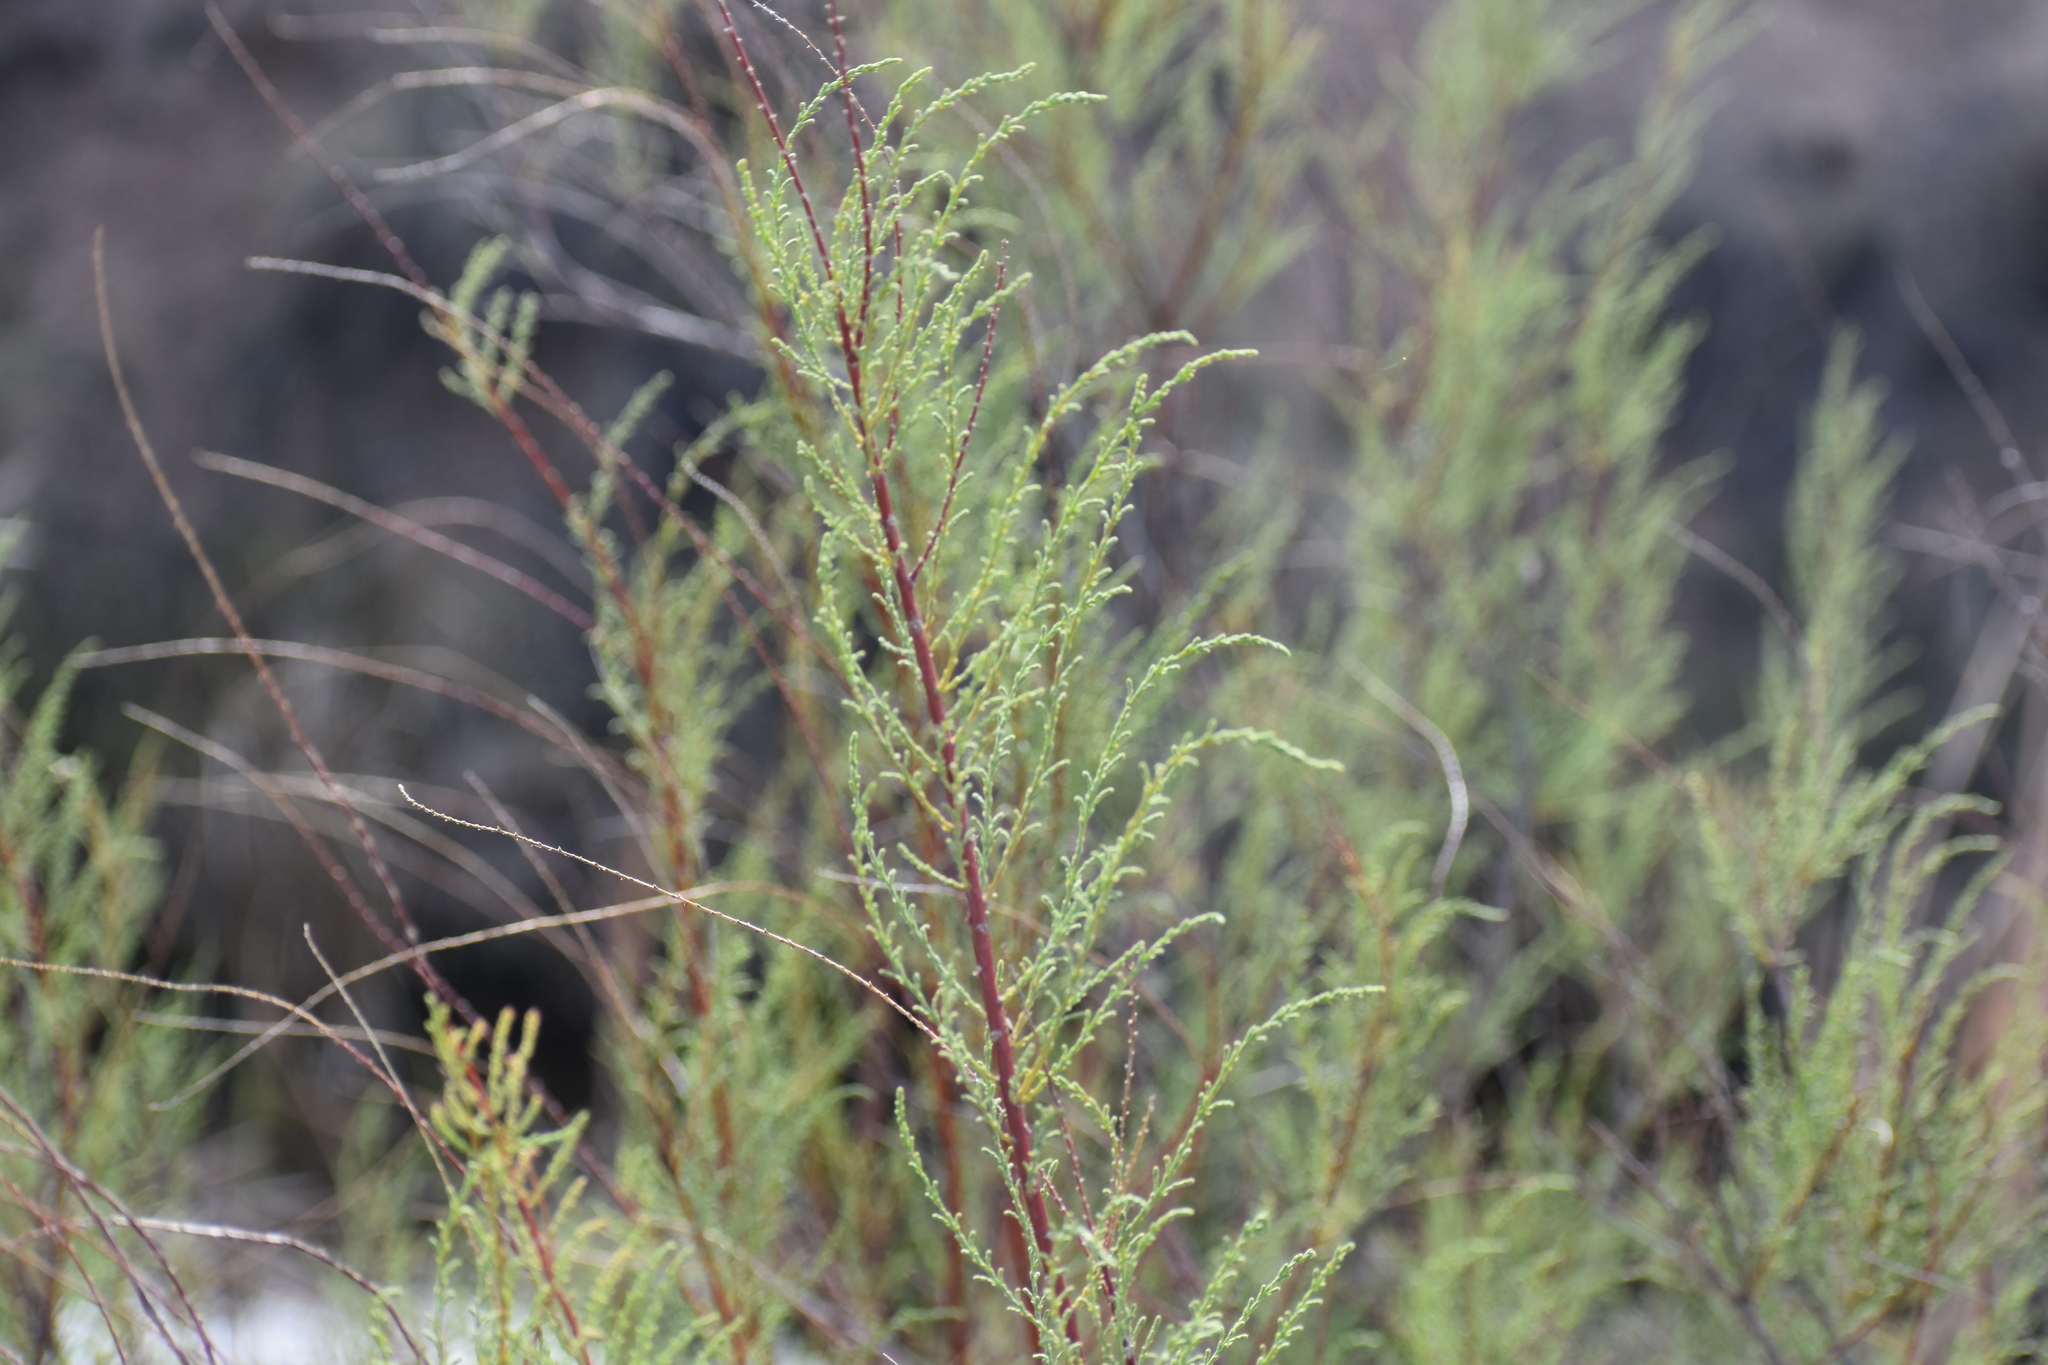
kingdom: Plantae
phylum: Tracheophyta
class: Magnoliopsida
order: Caryophyllales
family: Tamaricaceae
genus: Tamarix
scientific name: Tamarix
